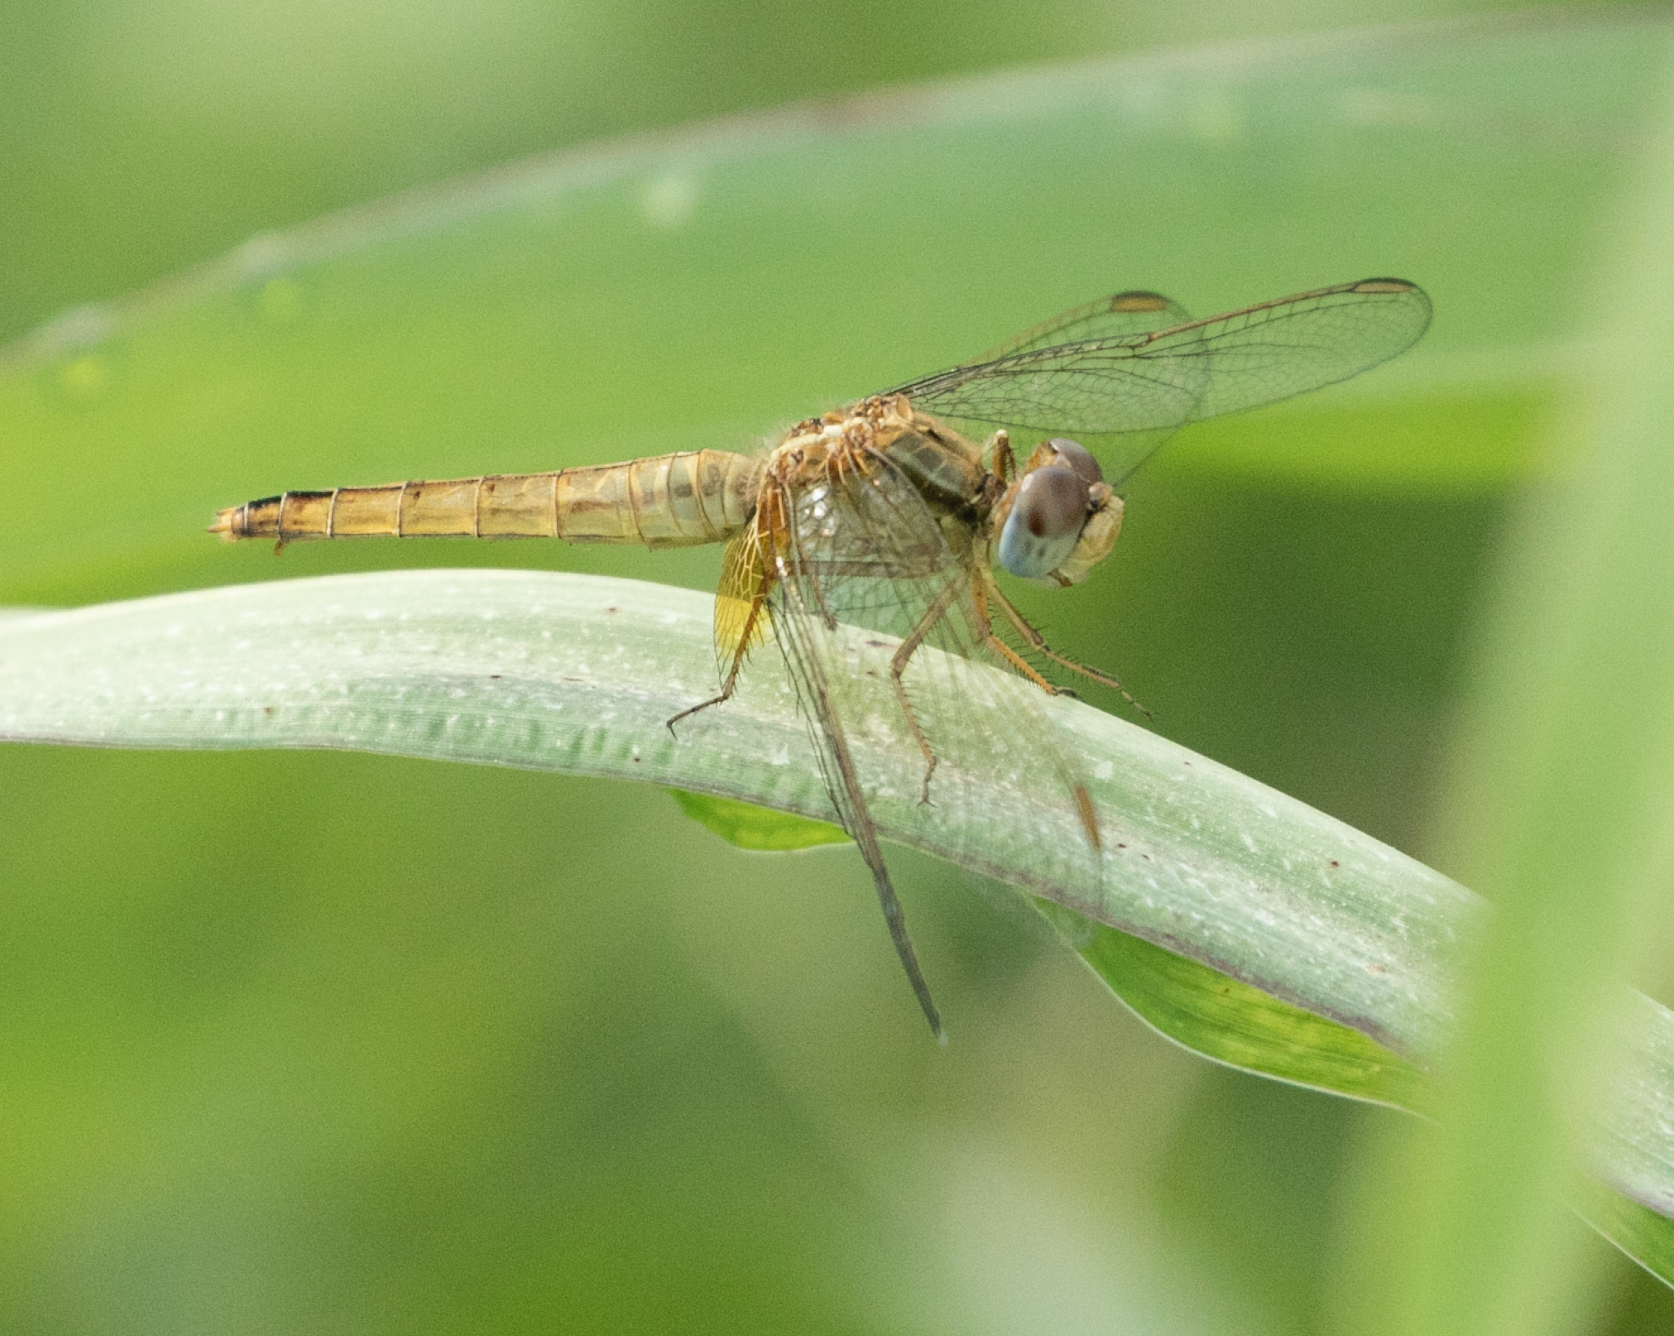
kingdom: Animalia
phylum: Arthropoda
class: Insecta
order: Odonata
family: Libellulidae
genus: Crocothemis
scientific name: Crocothemis erythraea
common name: Scarlet dragonfly
